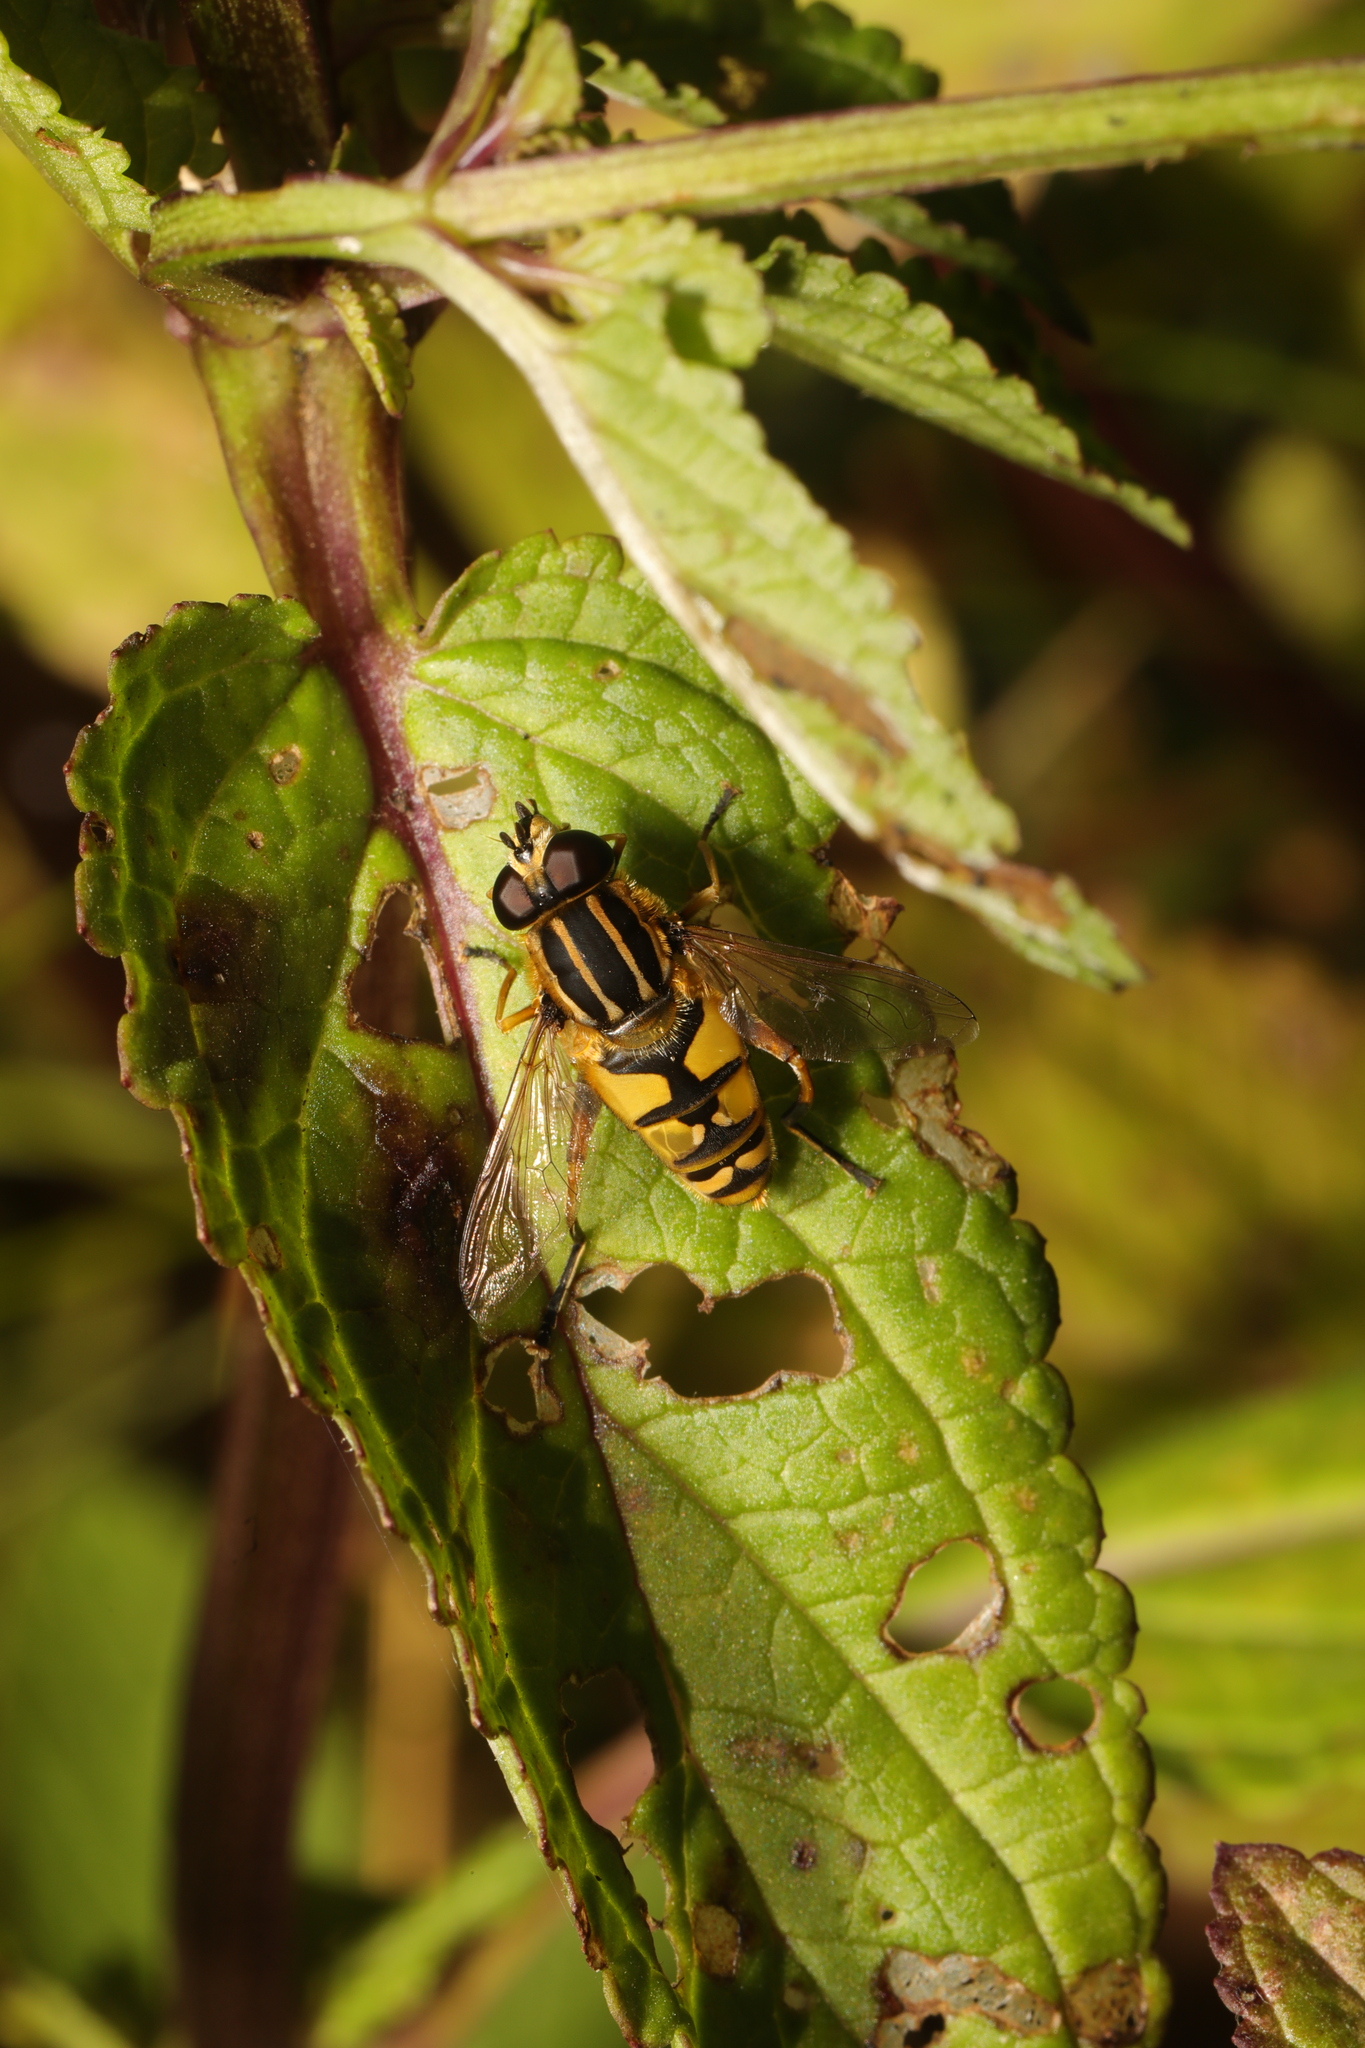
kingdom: Animalia
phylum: Arthropoda
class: Insecta
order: Diptera
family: Syrphidae
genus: Helophilus
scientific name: Helophilus pendulus
